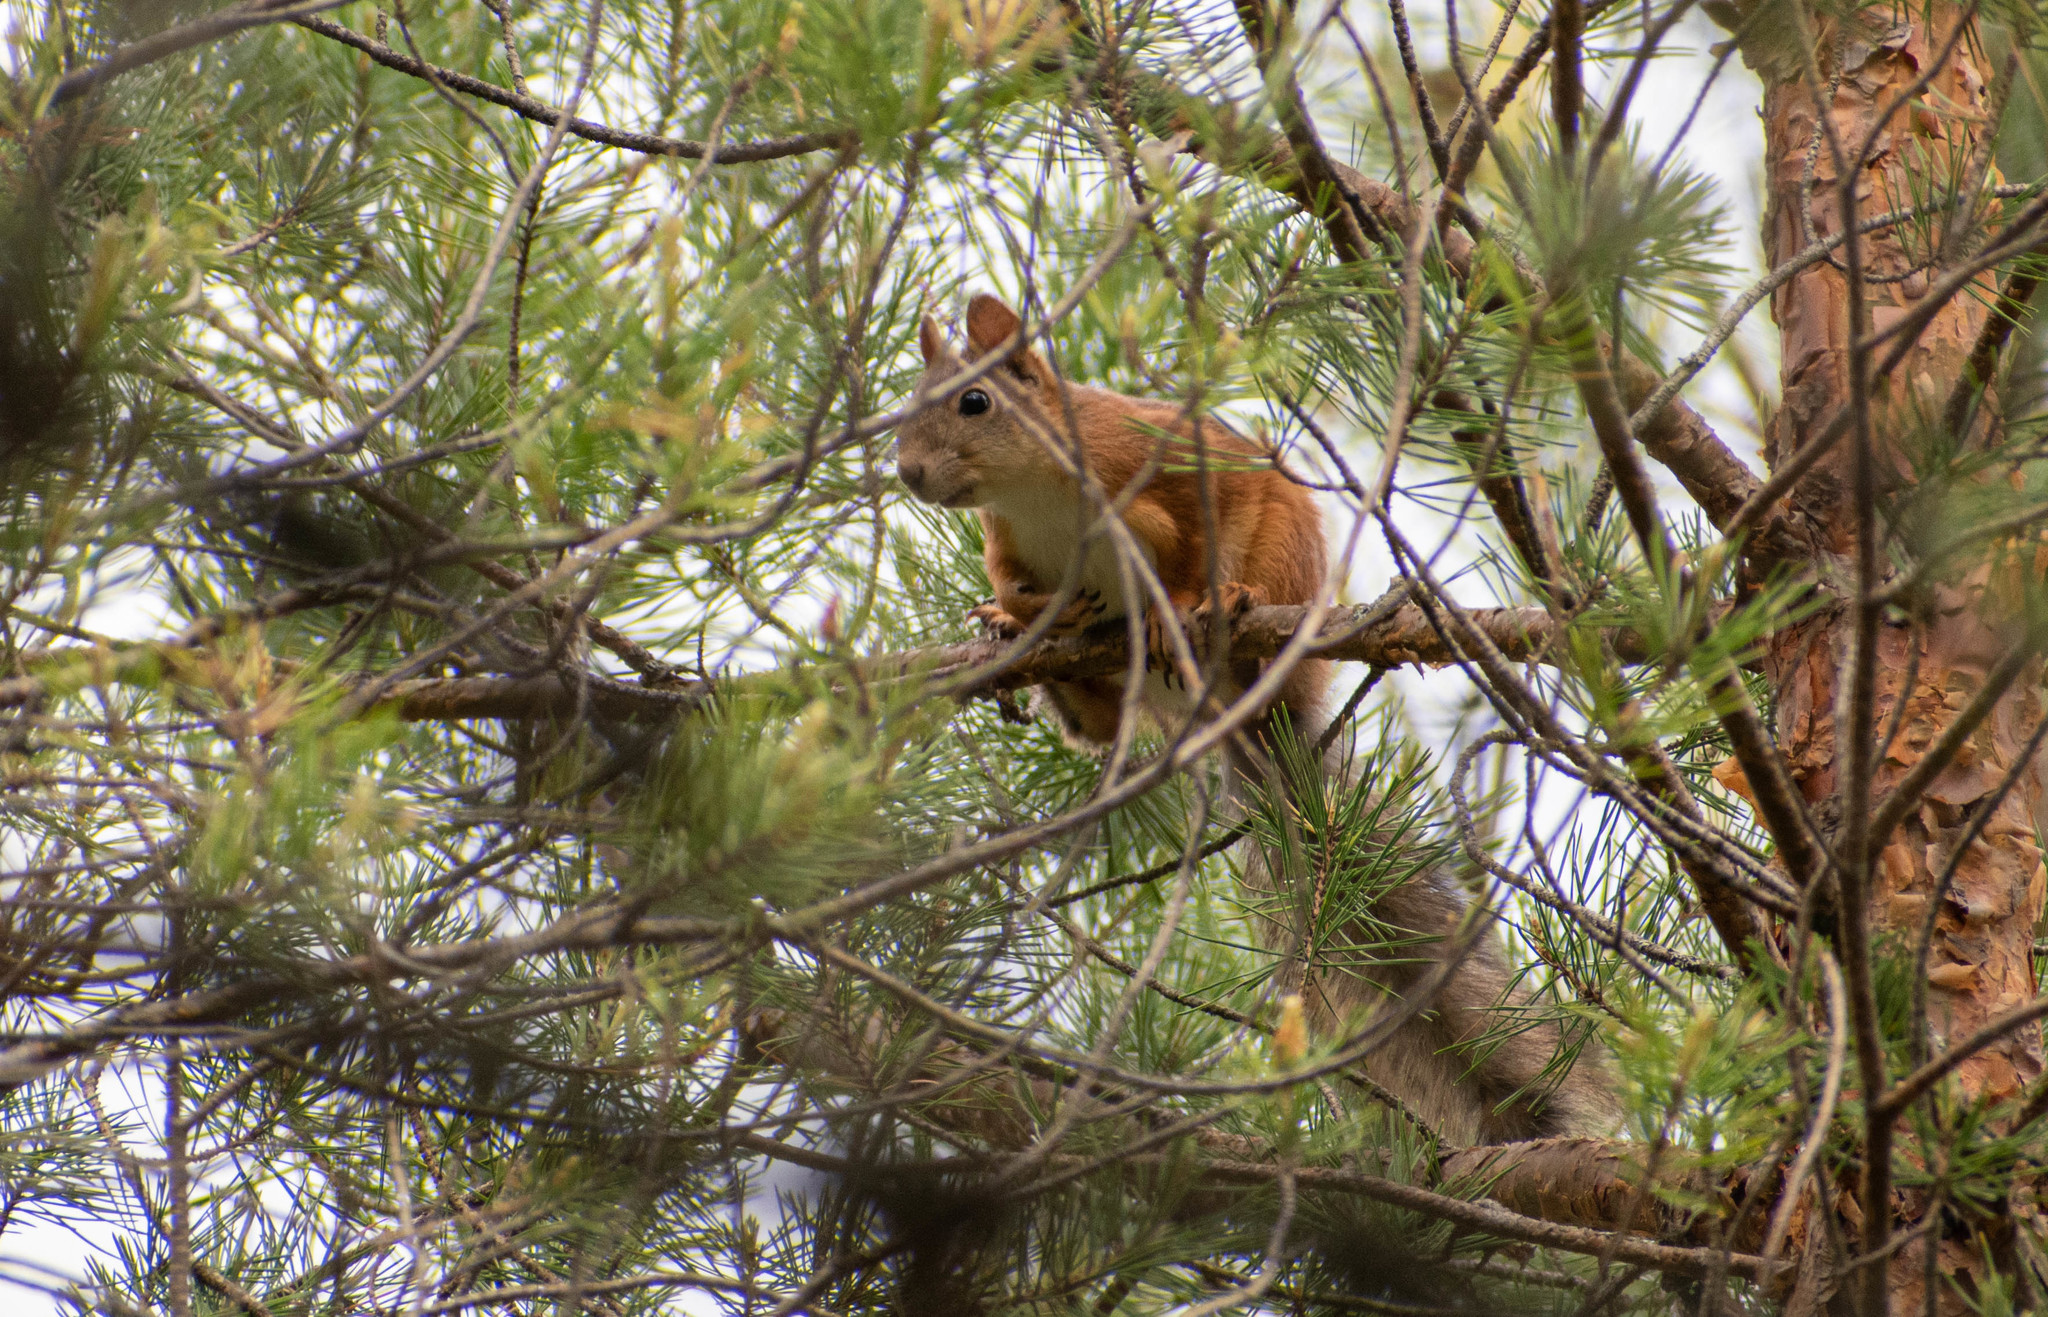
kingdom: Animalia
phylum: Chordata
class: Mammalia
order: Rodentia
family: Sciuridae
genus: Sciurus
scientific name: Sciurus vulgaris
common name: Eurasian red squirrel
